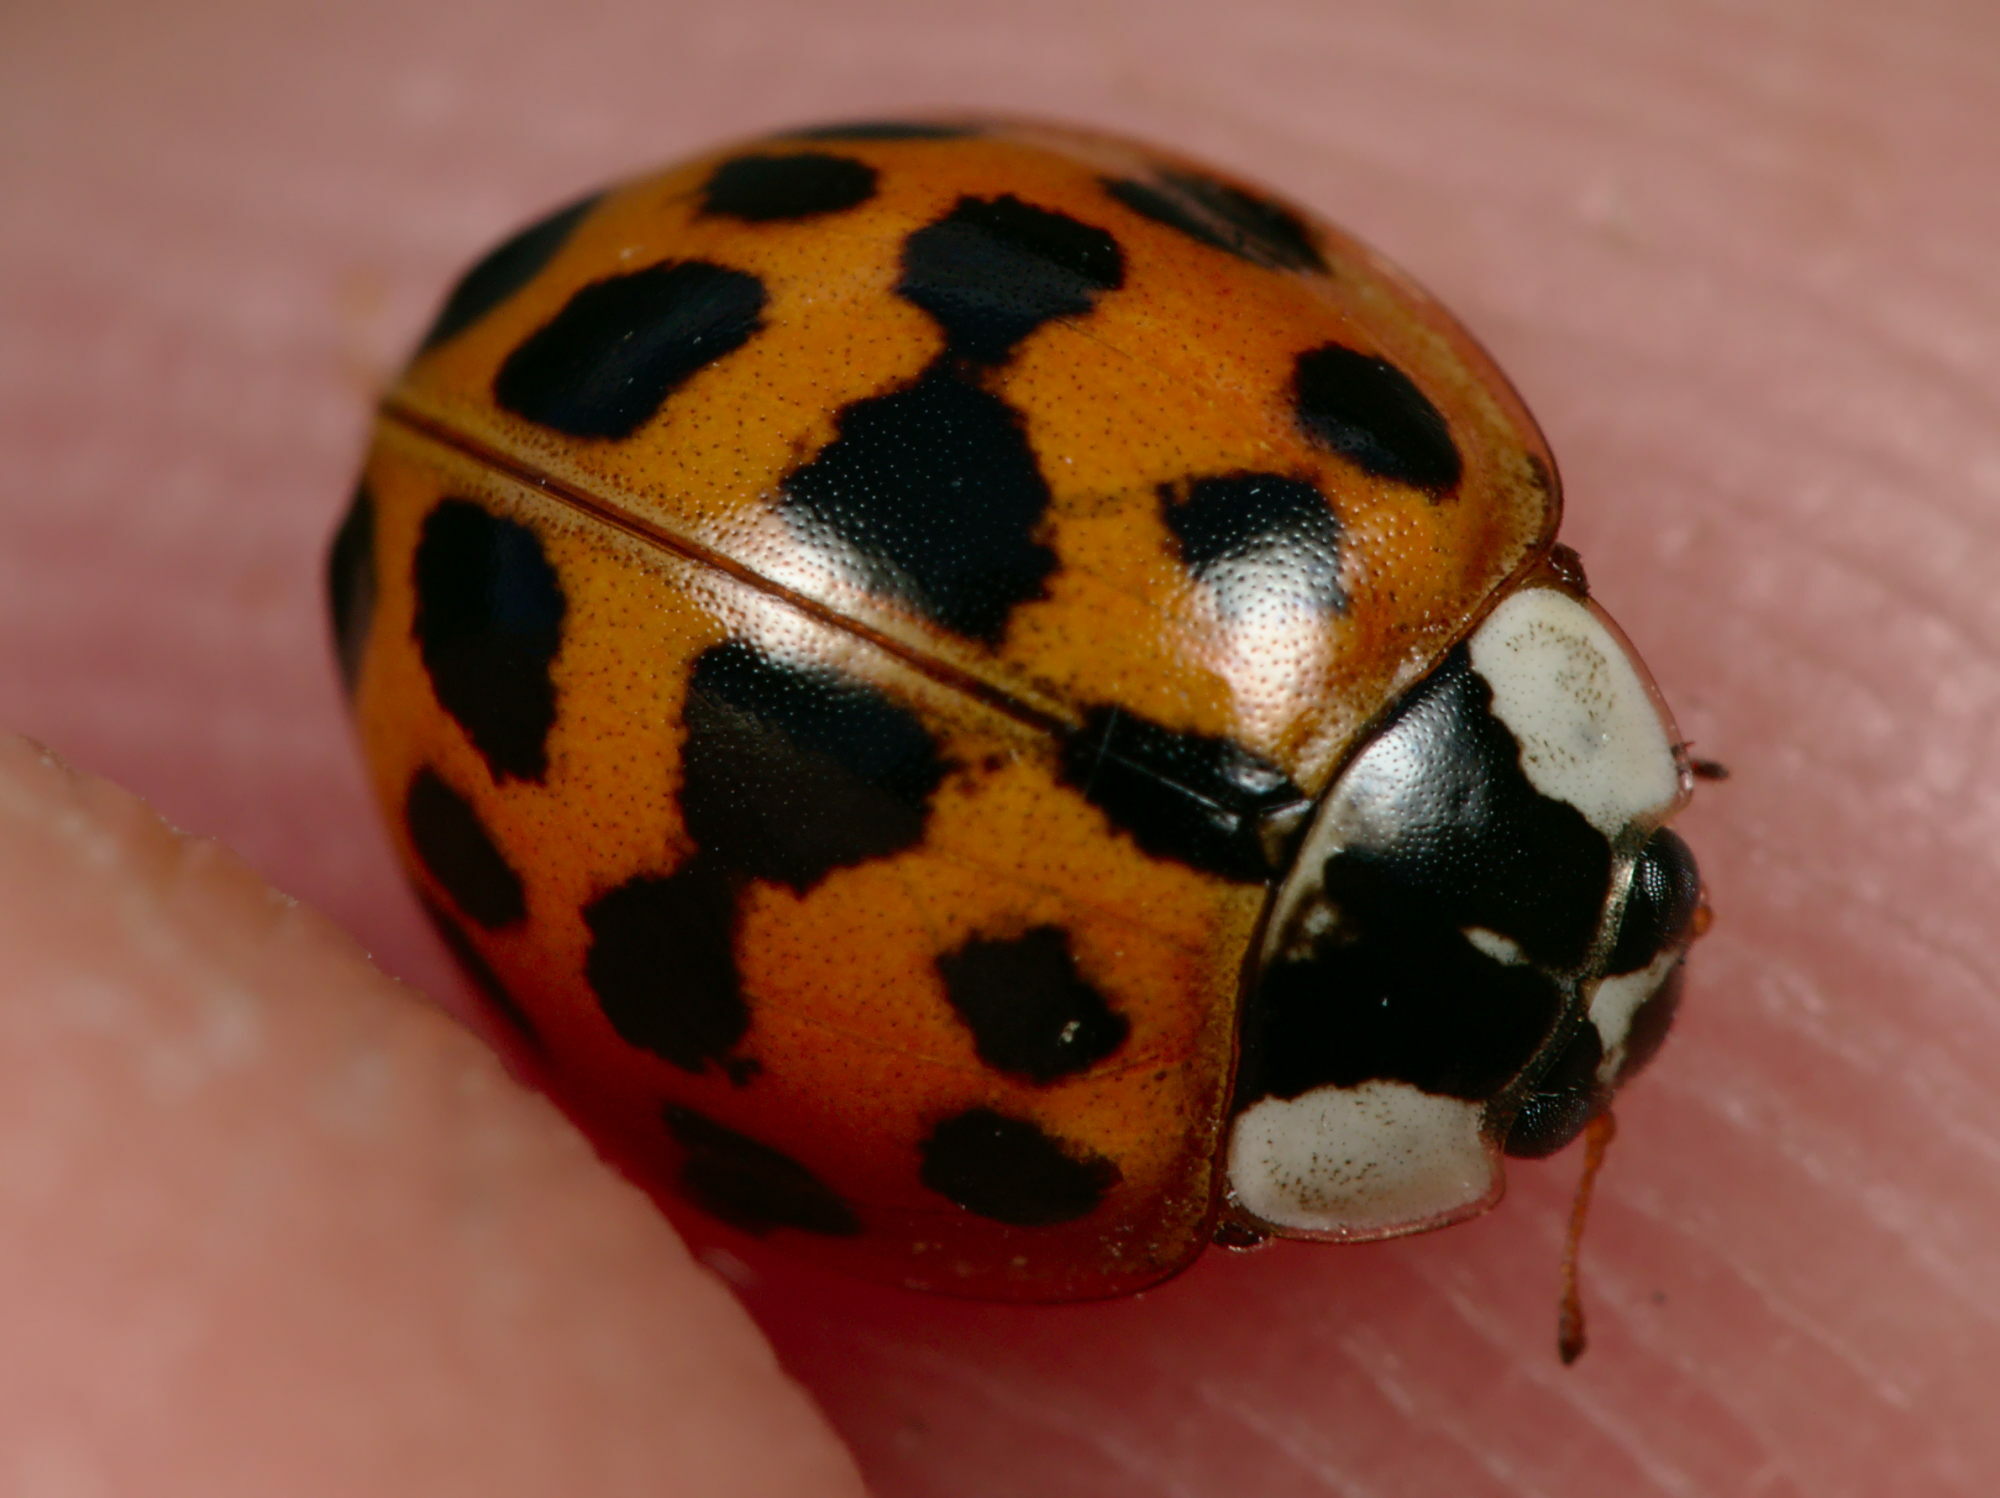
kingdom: Animalia
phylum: Arthropoda
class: Insecta
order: Coleoptera
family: Coccinellidae
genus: Harmonia
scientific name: Harmonia axyridis
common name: Harlequin ladybird
